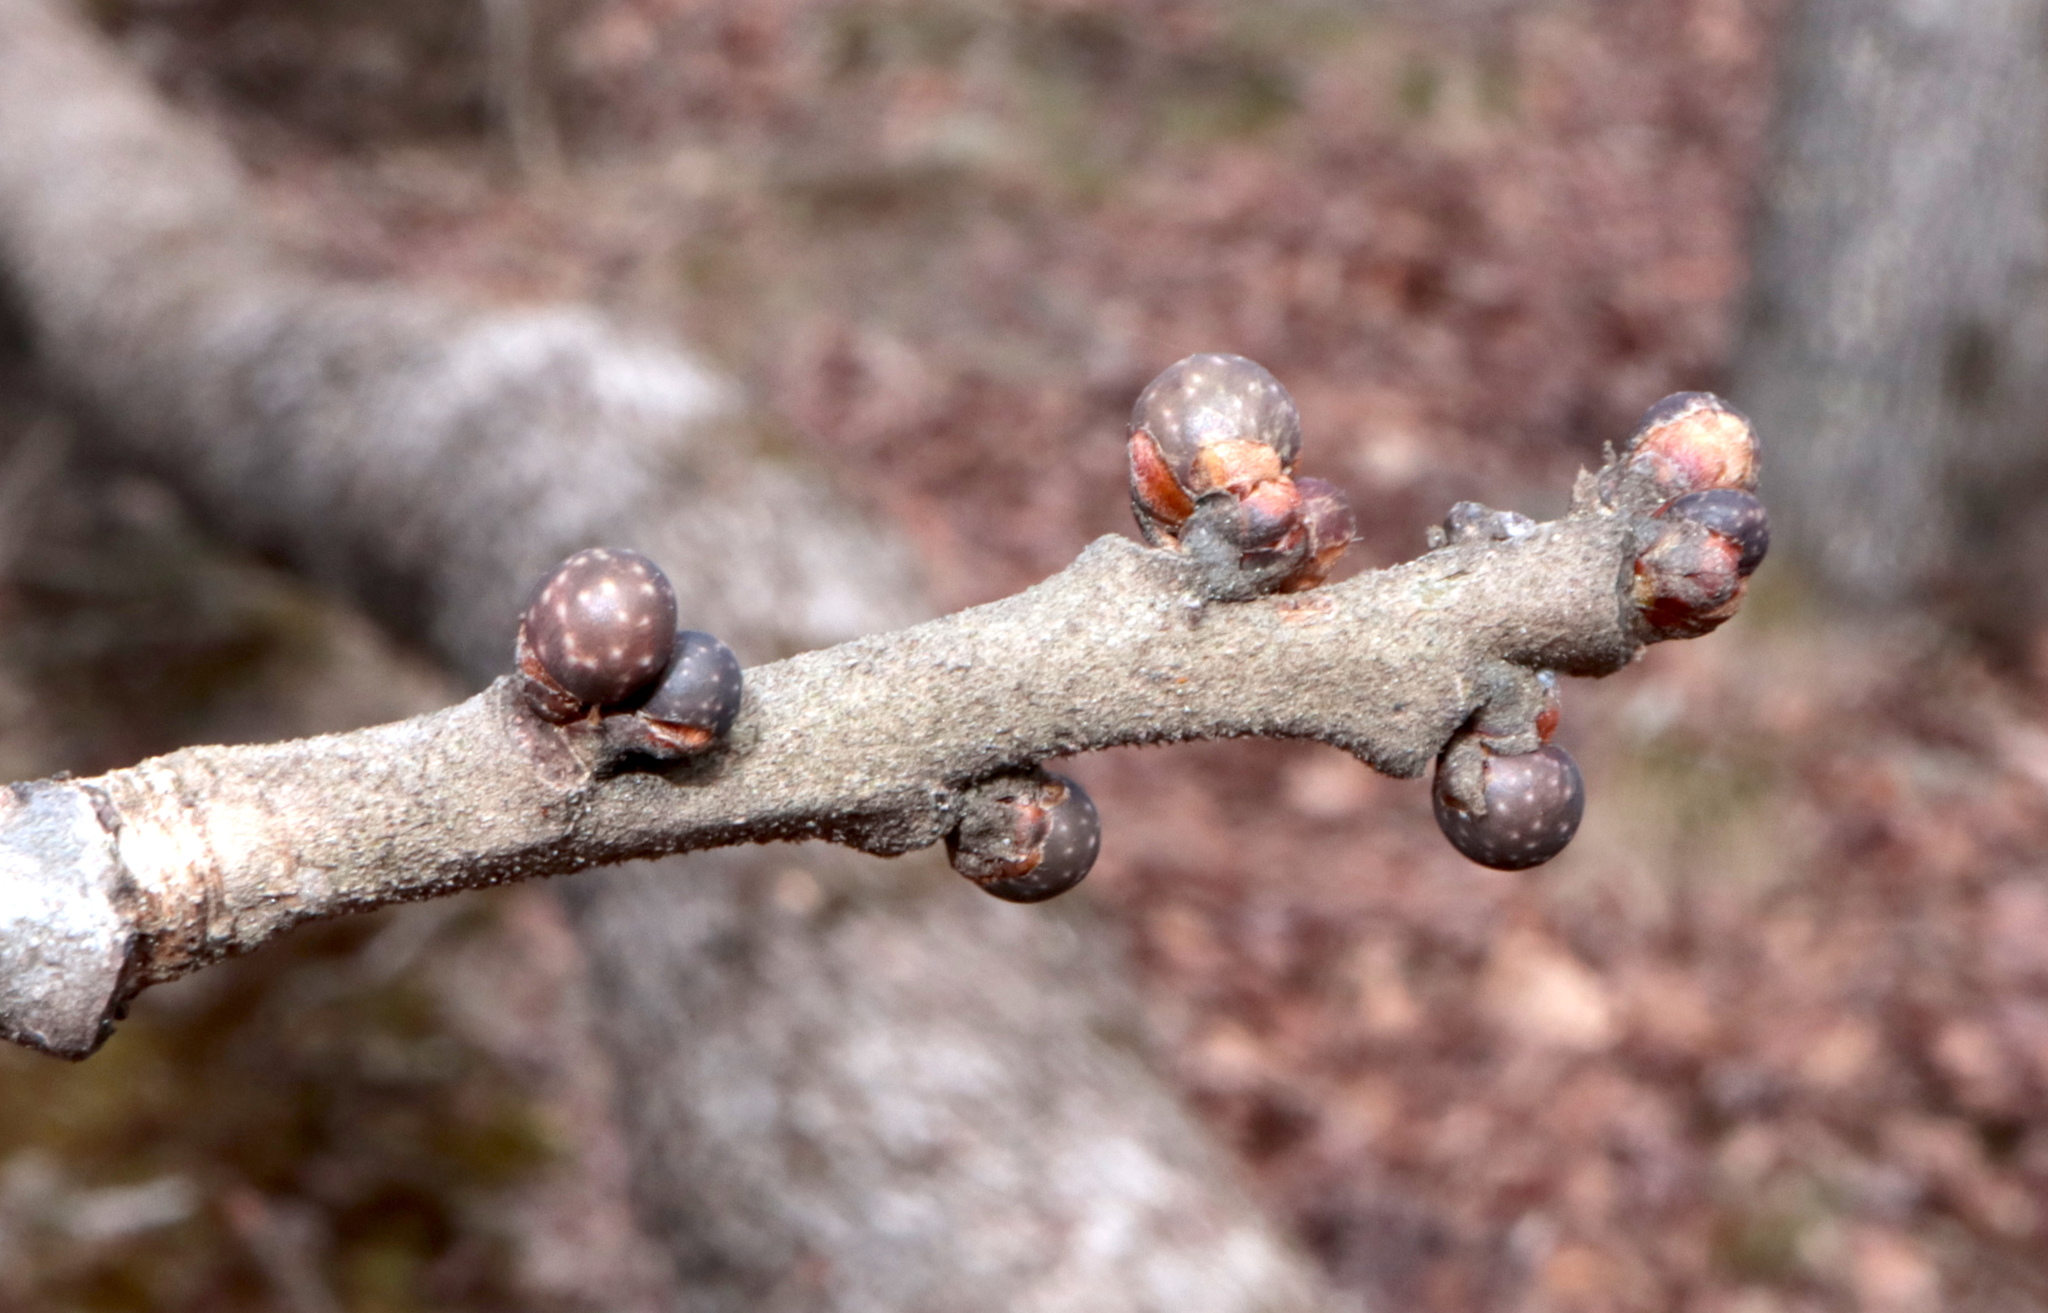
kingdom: Animalia
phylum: Arthropoda
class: Insecta
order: Hymenoptera
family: Cynipidae
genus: Neuroterus
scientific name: Neuroterus
